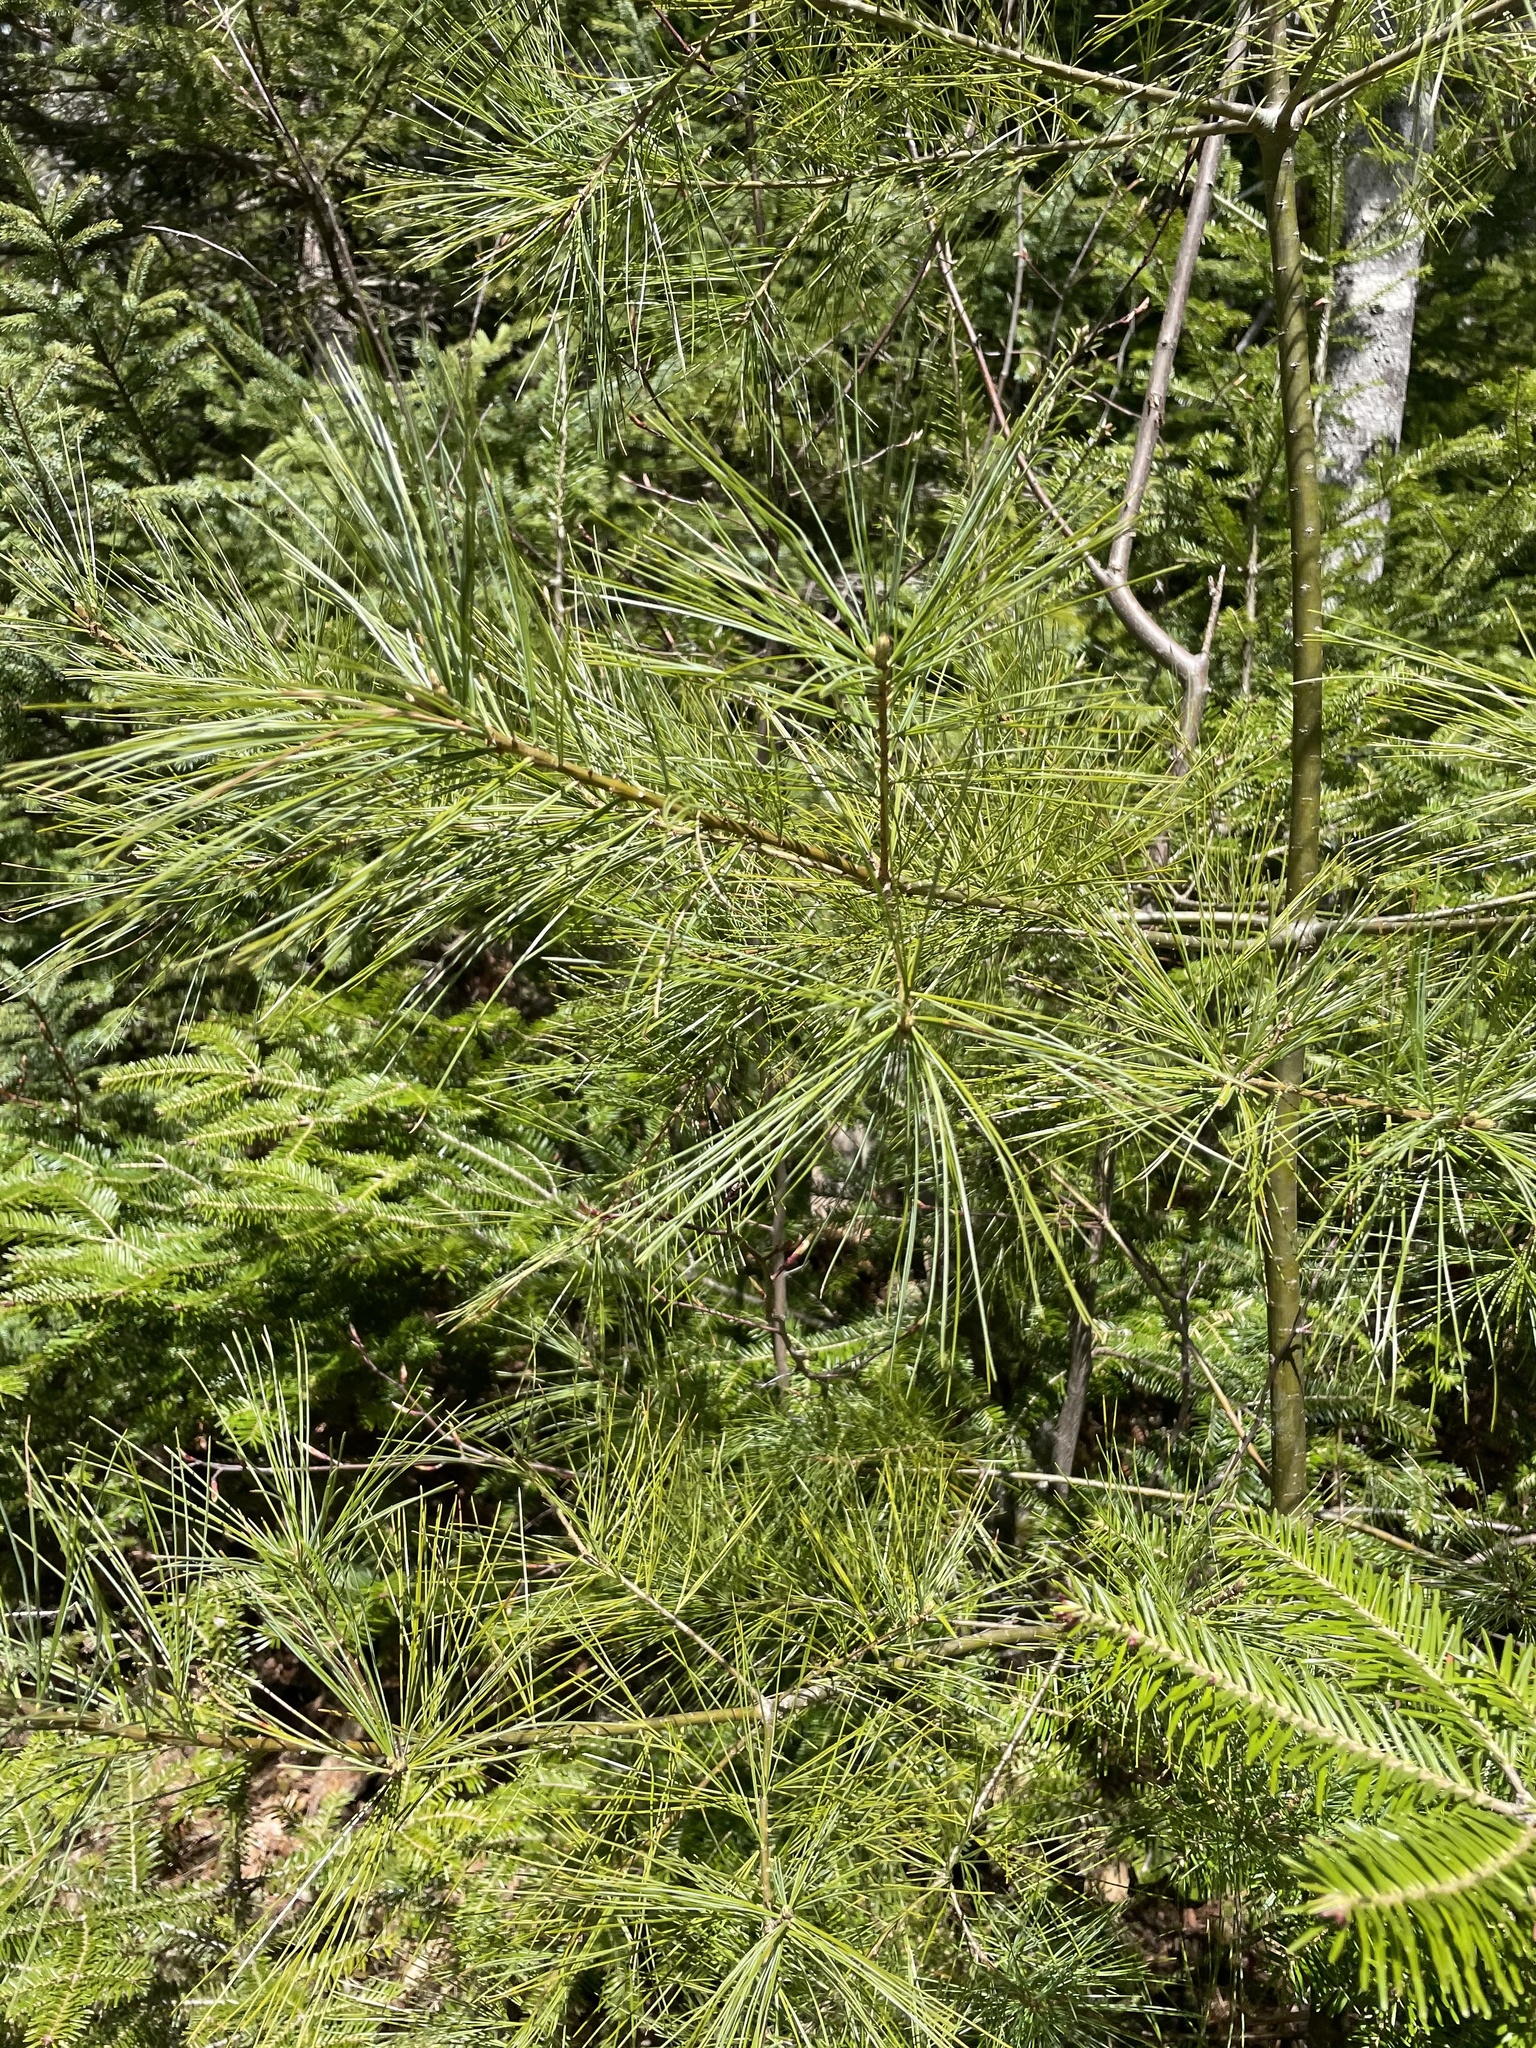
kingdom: Plantae
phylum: Tracheophyta
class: Pinopsida
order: Pinales
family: Pinaceae
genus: Pinus
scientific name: Pinus strobus
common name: Weymouth pine
